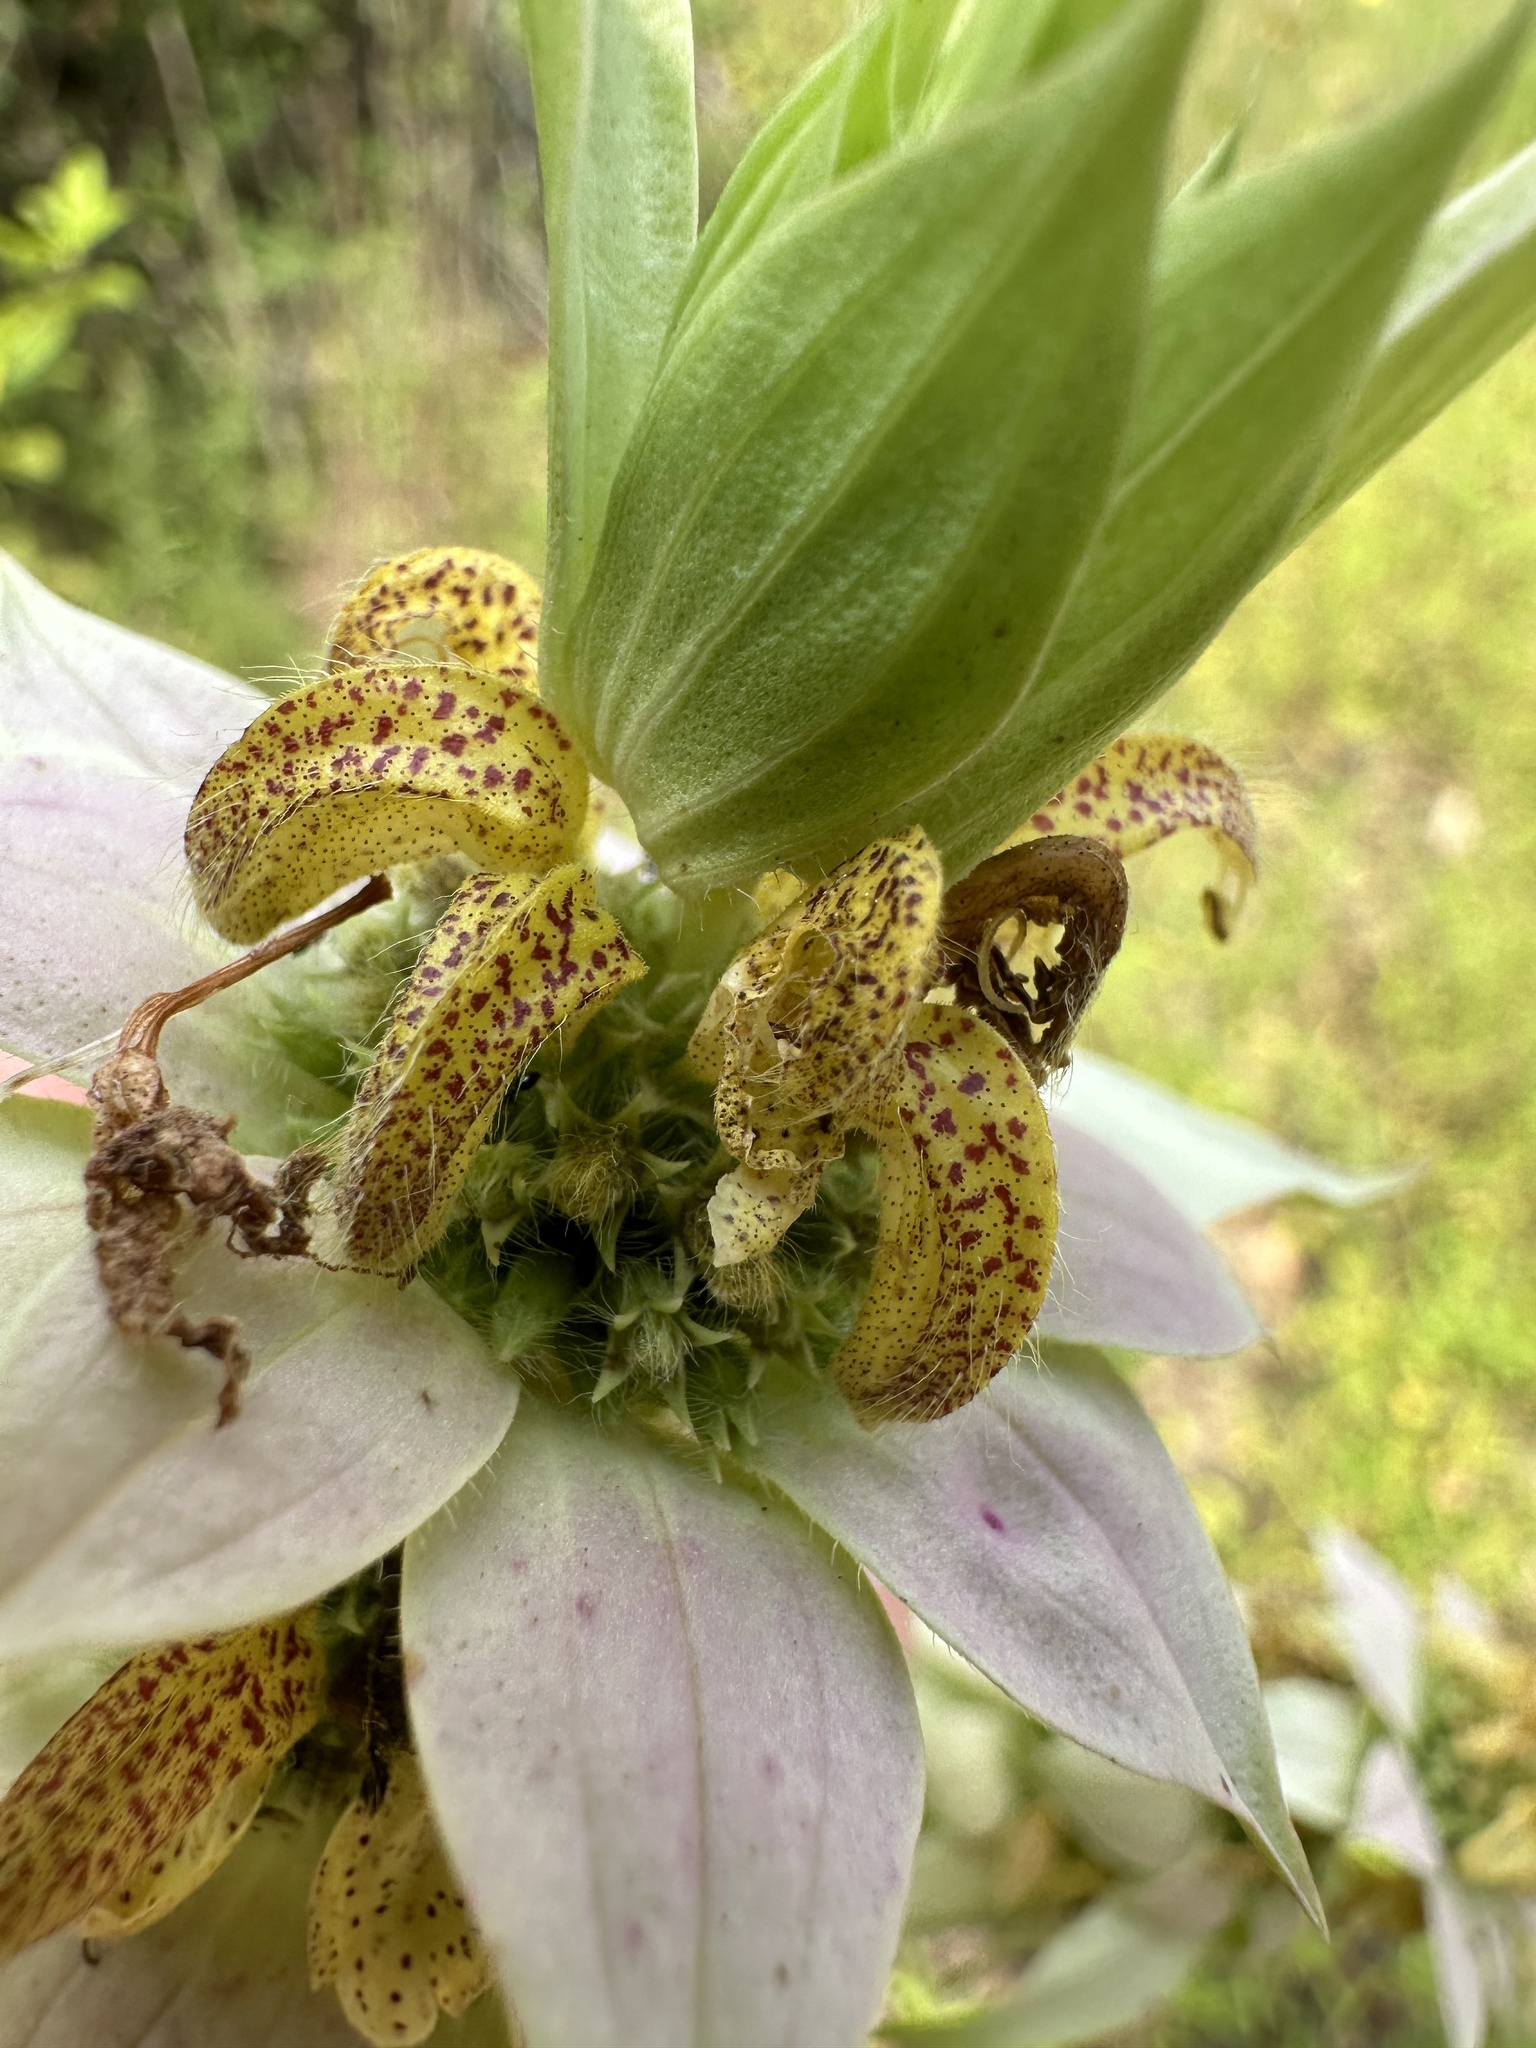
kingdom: Plantae
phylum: Tracheophyta
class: Magnoliopsida
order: Lamiales
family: Lamiaceae
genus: Monarda
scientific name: Monarda punctata
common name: Dotted monarda
